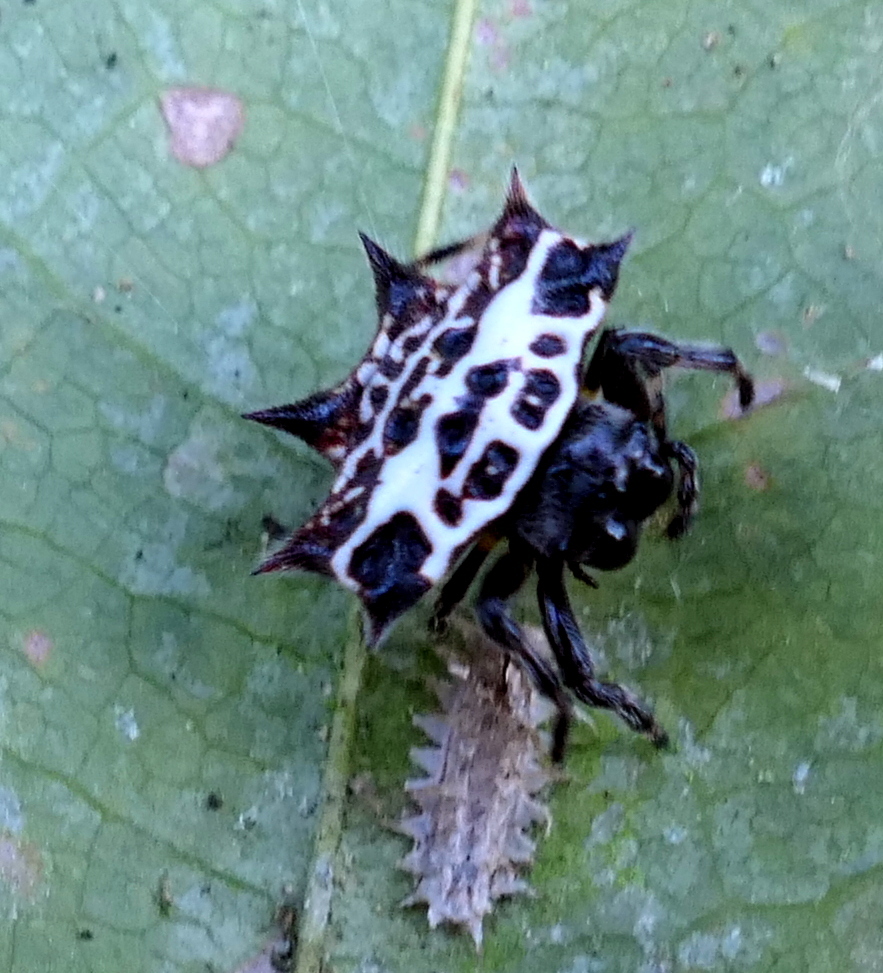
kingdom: Animalia
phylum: Arthropoda
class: Arachnida
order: Araneae
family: Araneidae
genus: Gasteracantha
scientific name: Gasteracantha cancriformis
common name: Orb weavers
